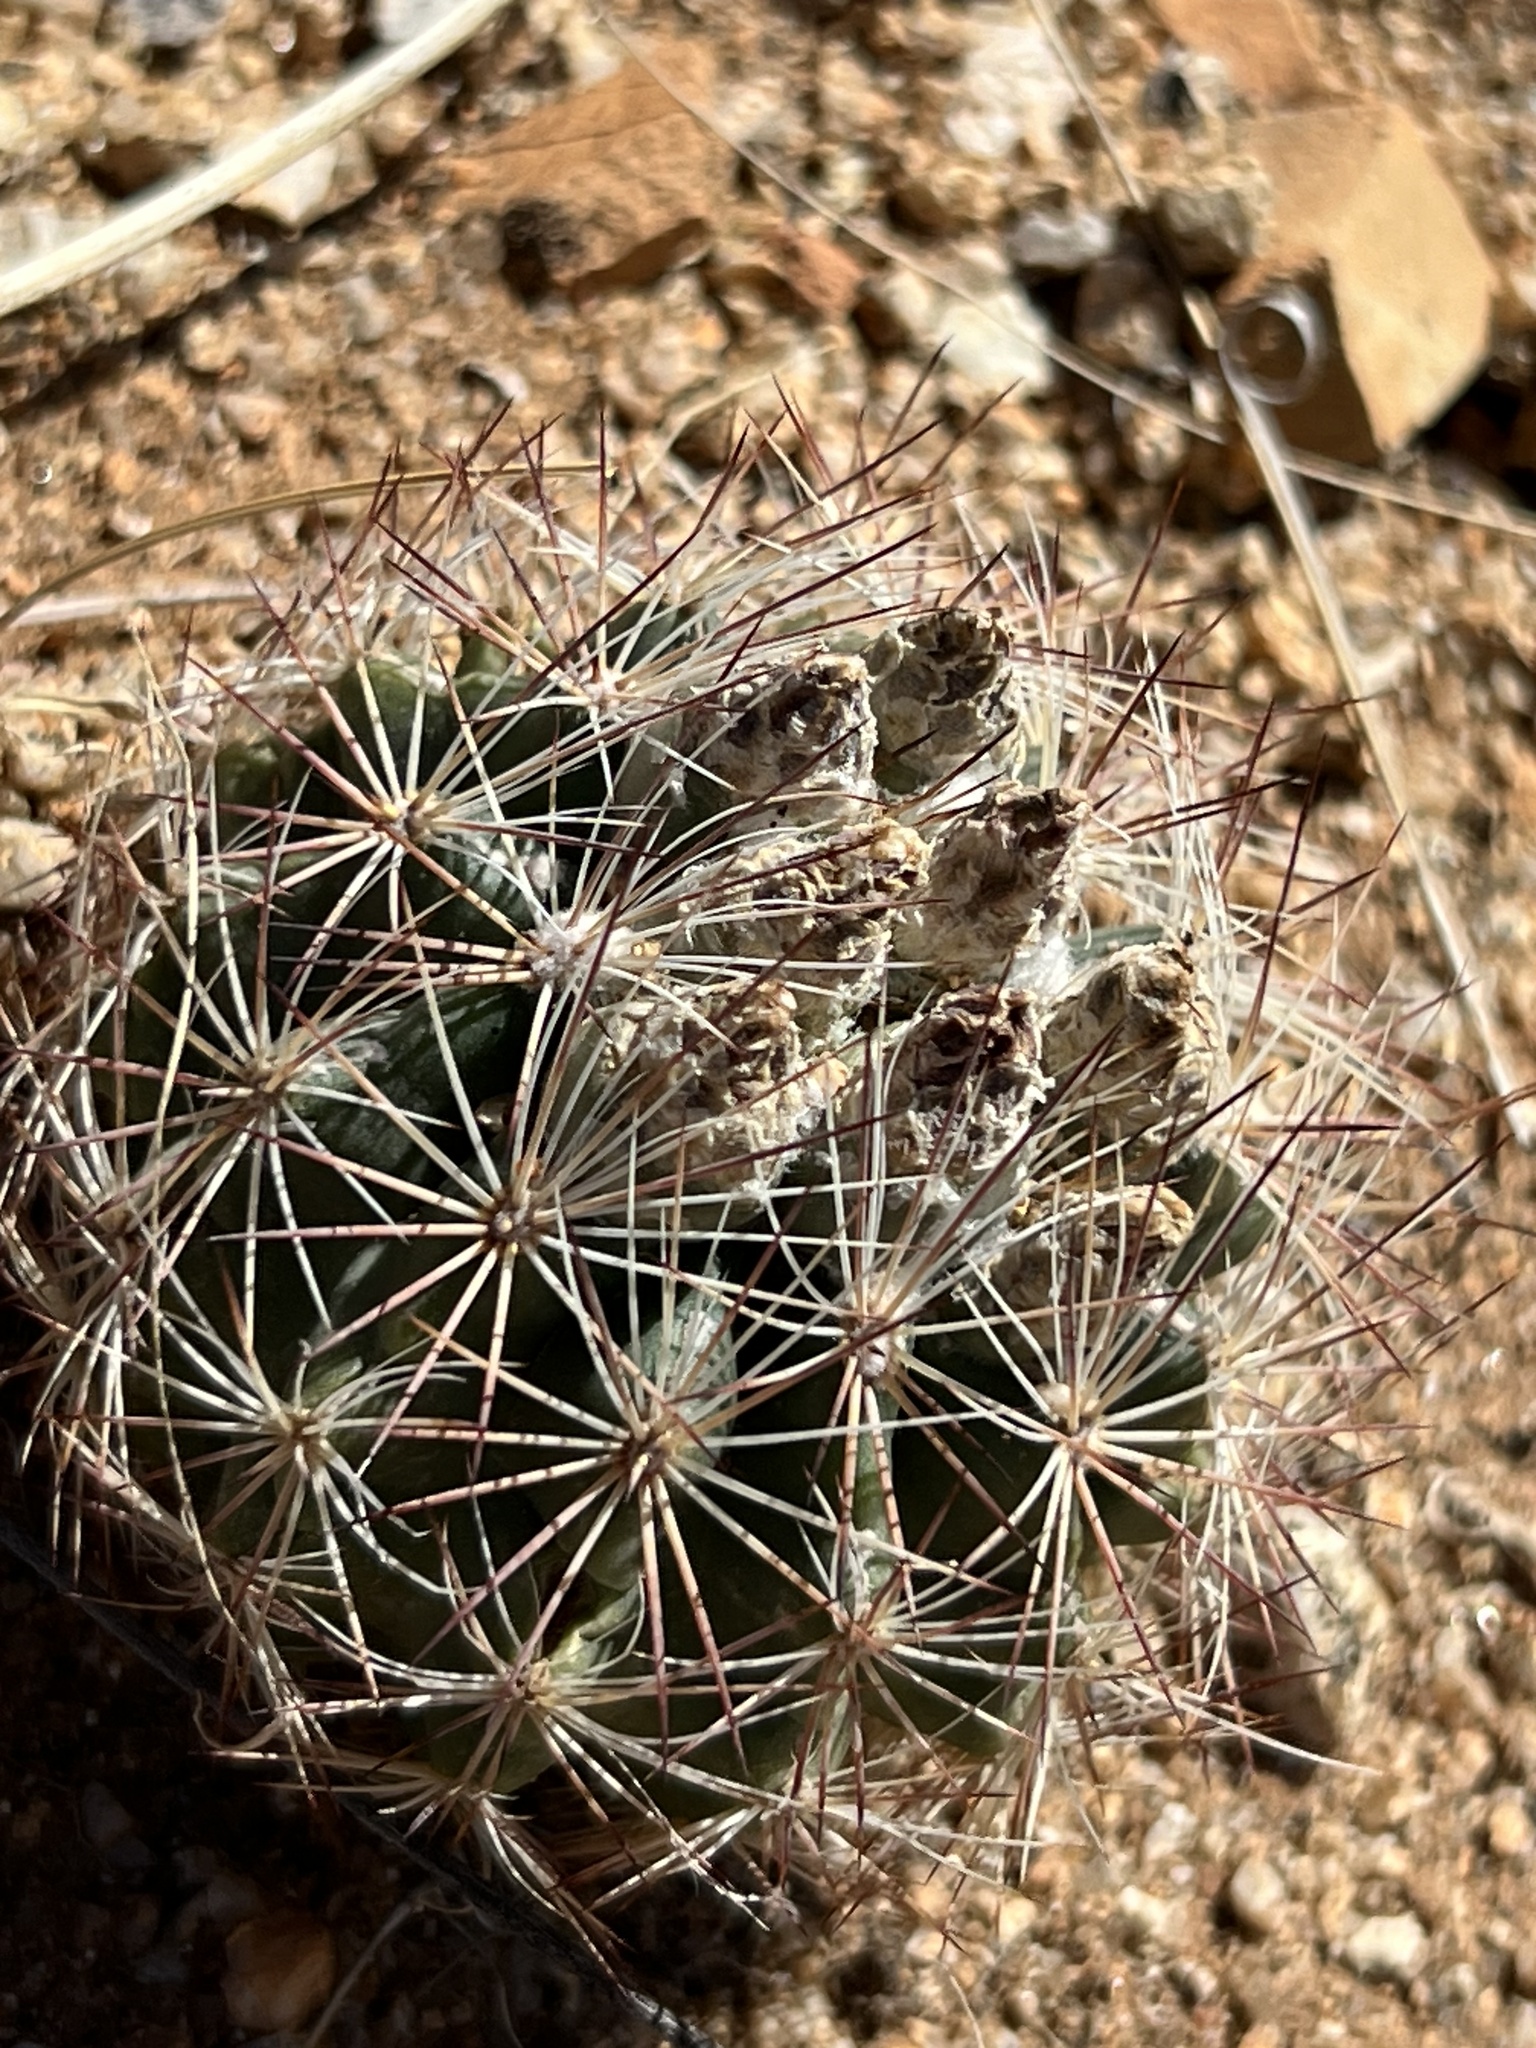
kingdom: Plantae
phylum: Tracheophyta
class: Magnoliopsida
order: Caryophyllales
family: Cactaceae
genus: Sclerocactus
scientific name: Sclerocactus intertextus
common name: White fish-hook cactus
